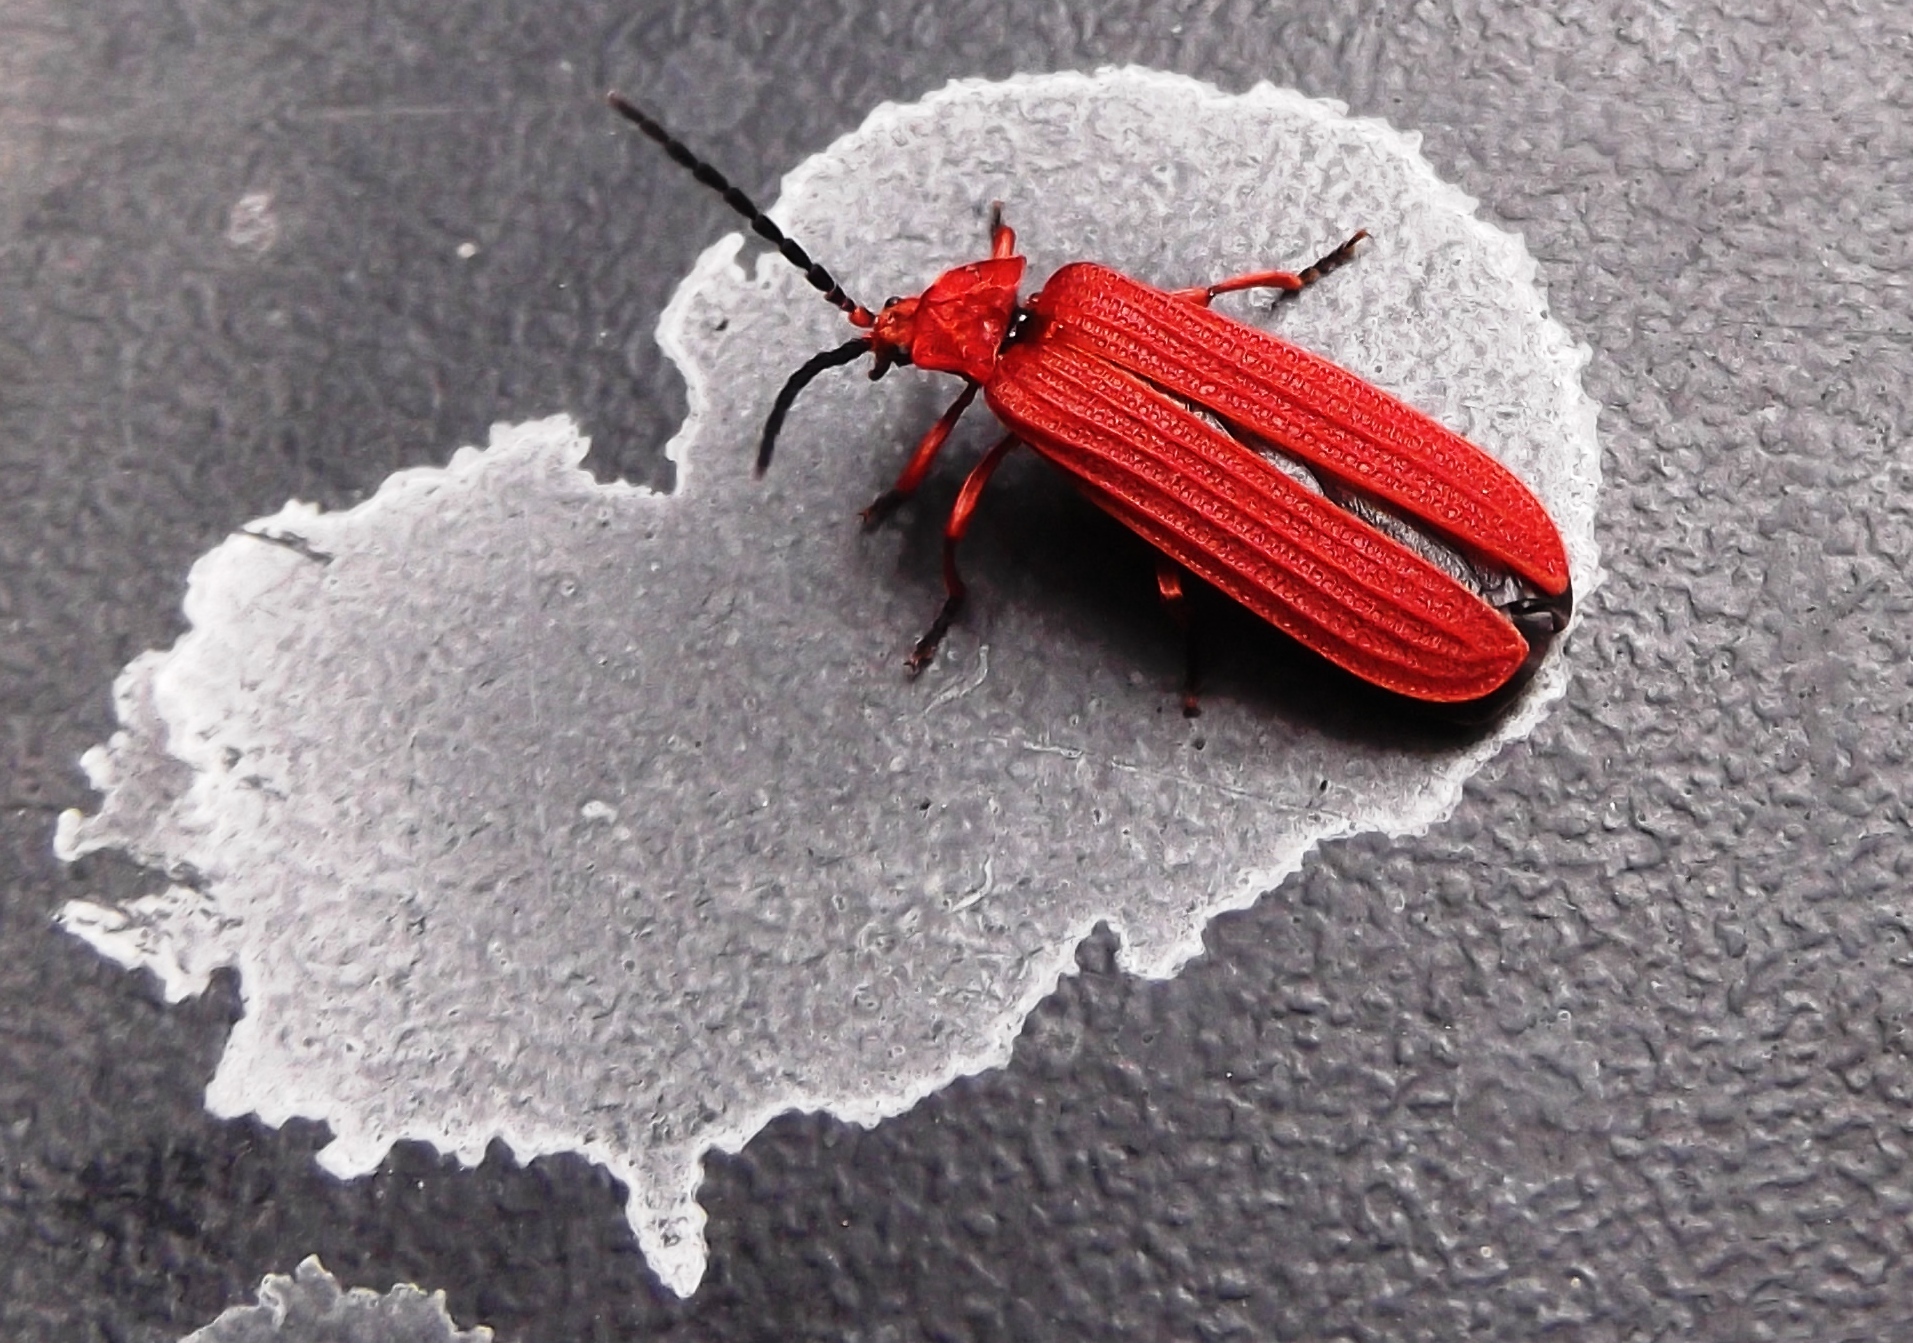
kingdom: Animalia
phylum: Arthropoda
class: Insecta
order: Coleoptera
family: Lycidae
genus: Punicealis
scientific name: Punicealis hamata
